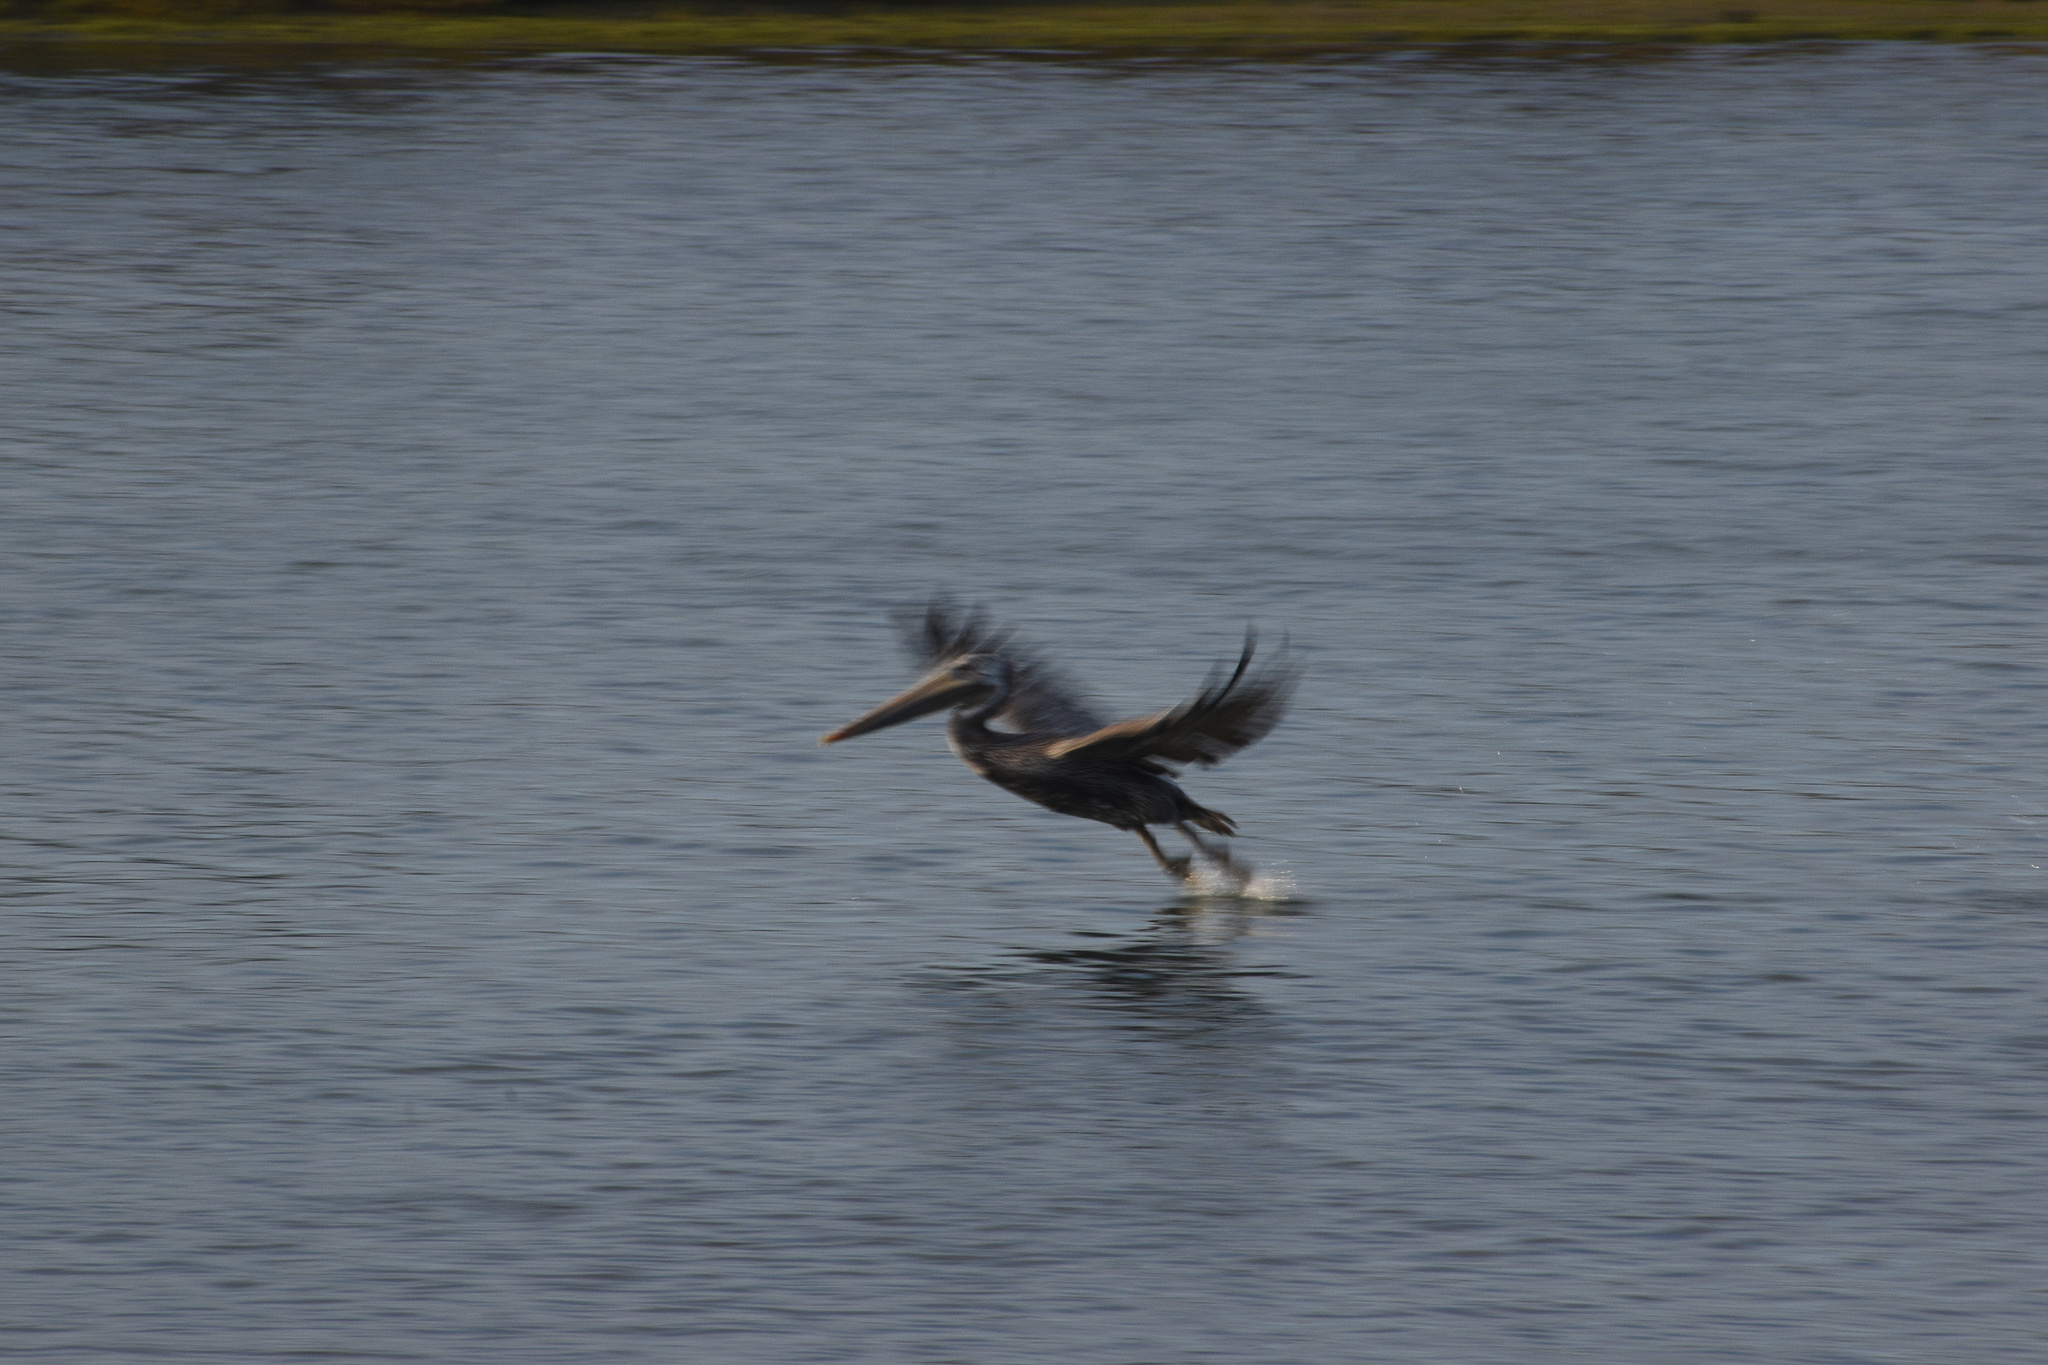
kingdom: Animalia
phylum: Chordata
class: Aves
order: Pelecaniformes
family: Pelecanidae
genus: Pelecanus
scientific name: Pelecanus occidentalis
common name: Brown pelican
